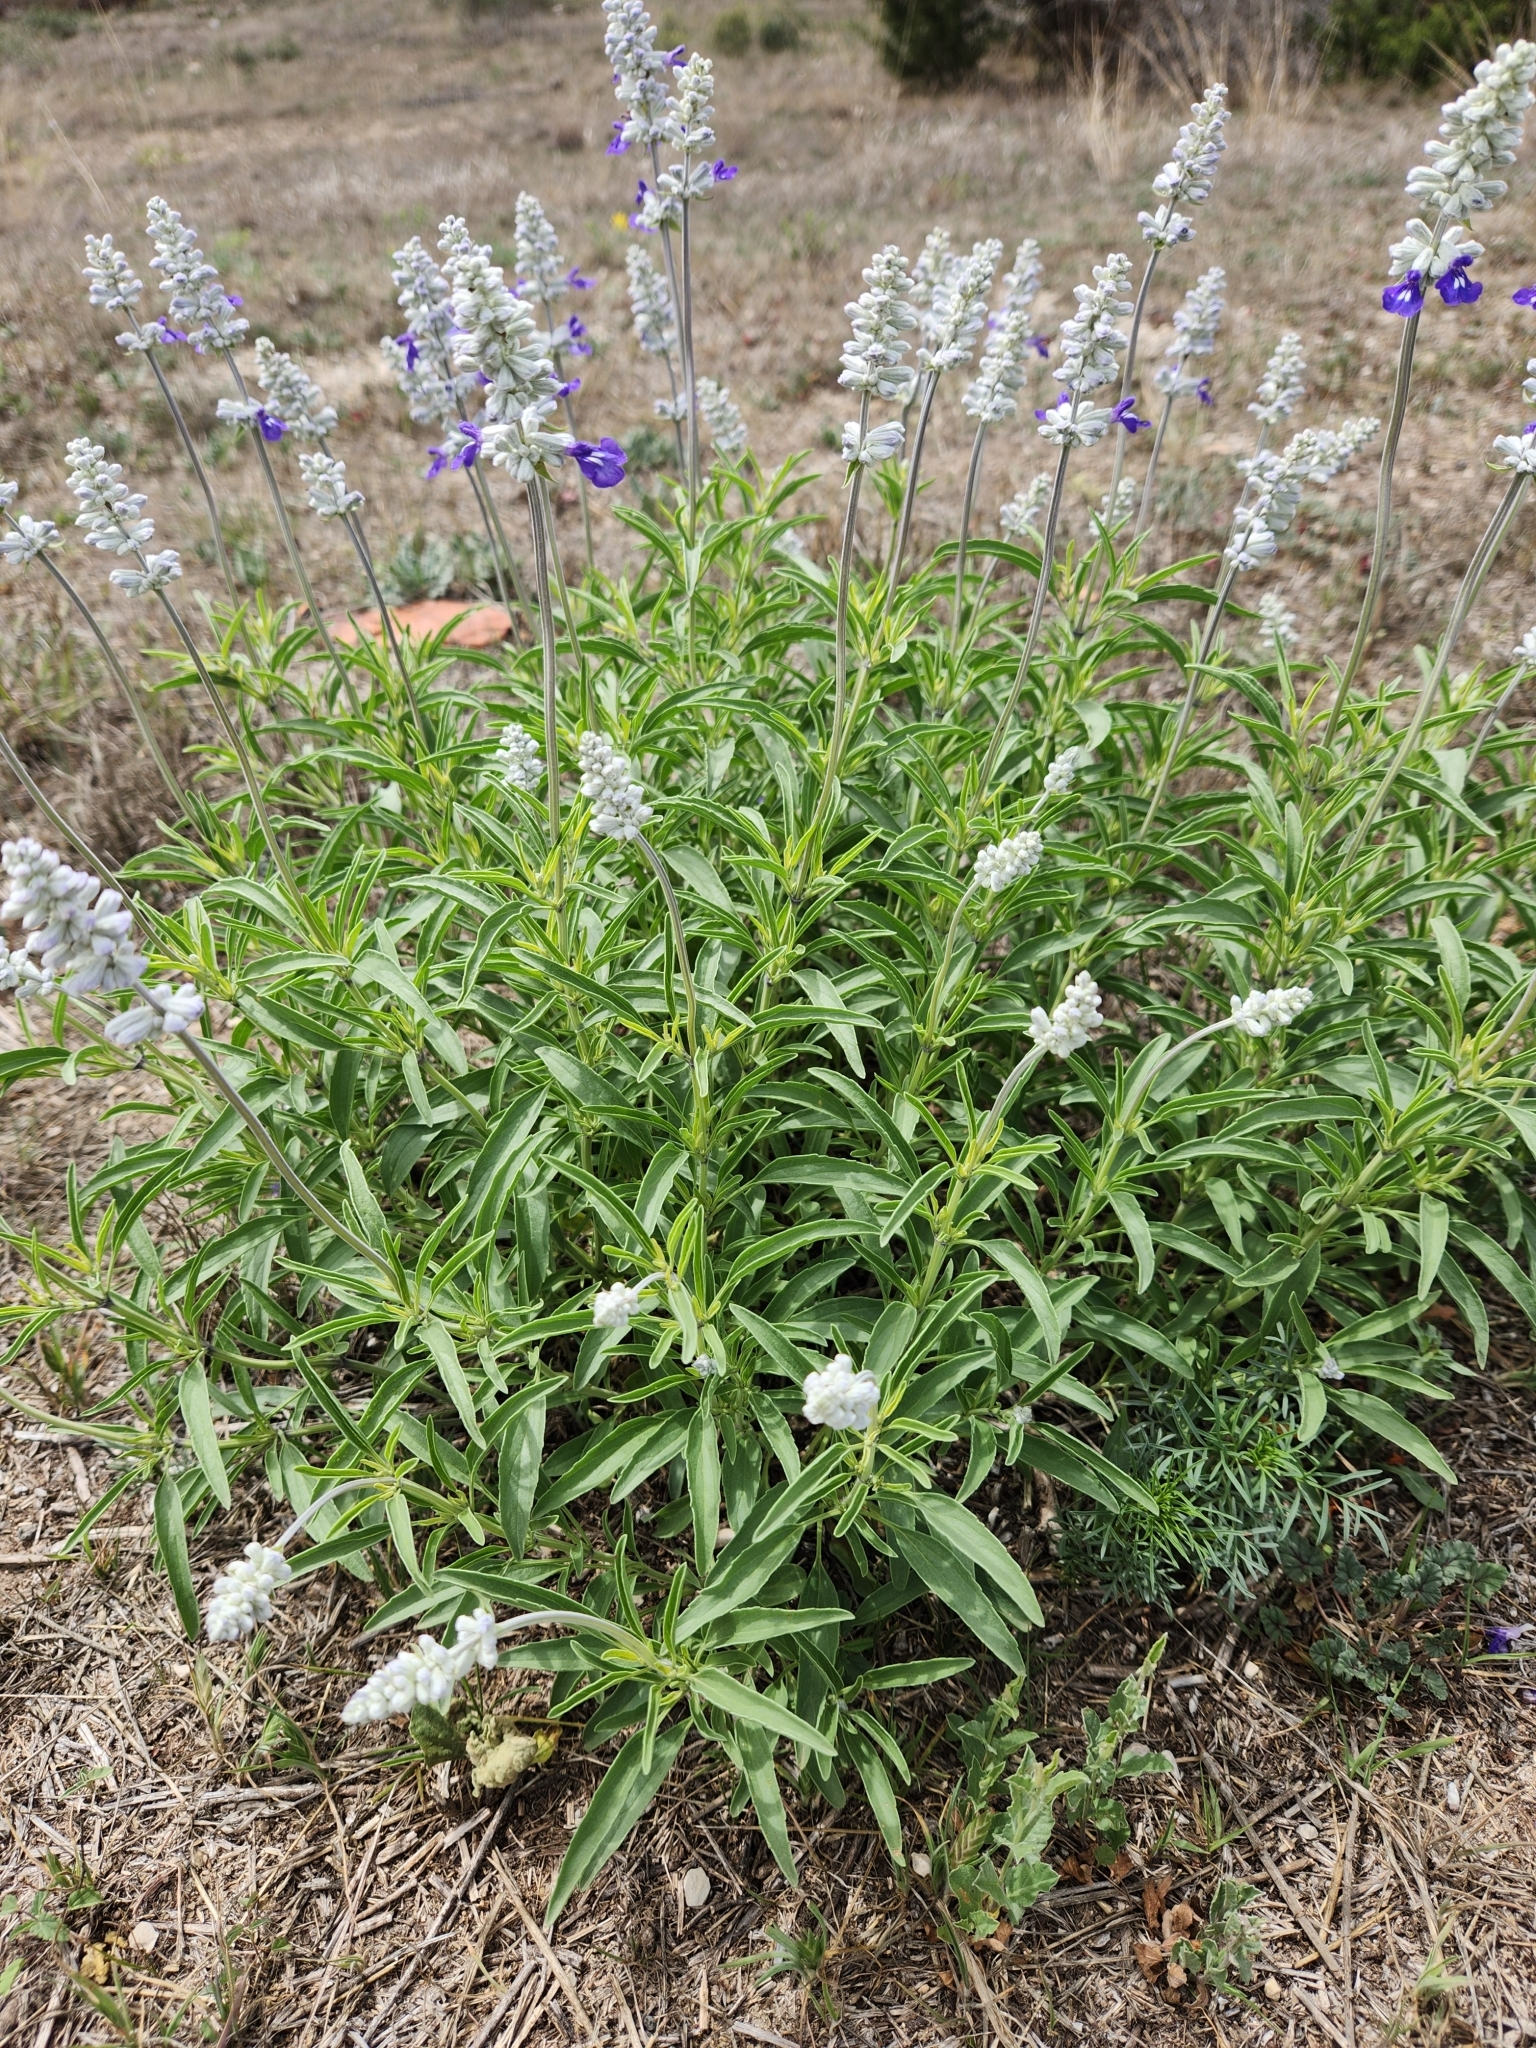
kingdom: Plantae
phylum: Tracheophyta
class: Magnoliopsida
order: Lamiales
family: Lamiaceae
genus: Salvia
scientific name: Salvia farinacea
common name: Mealy sage
